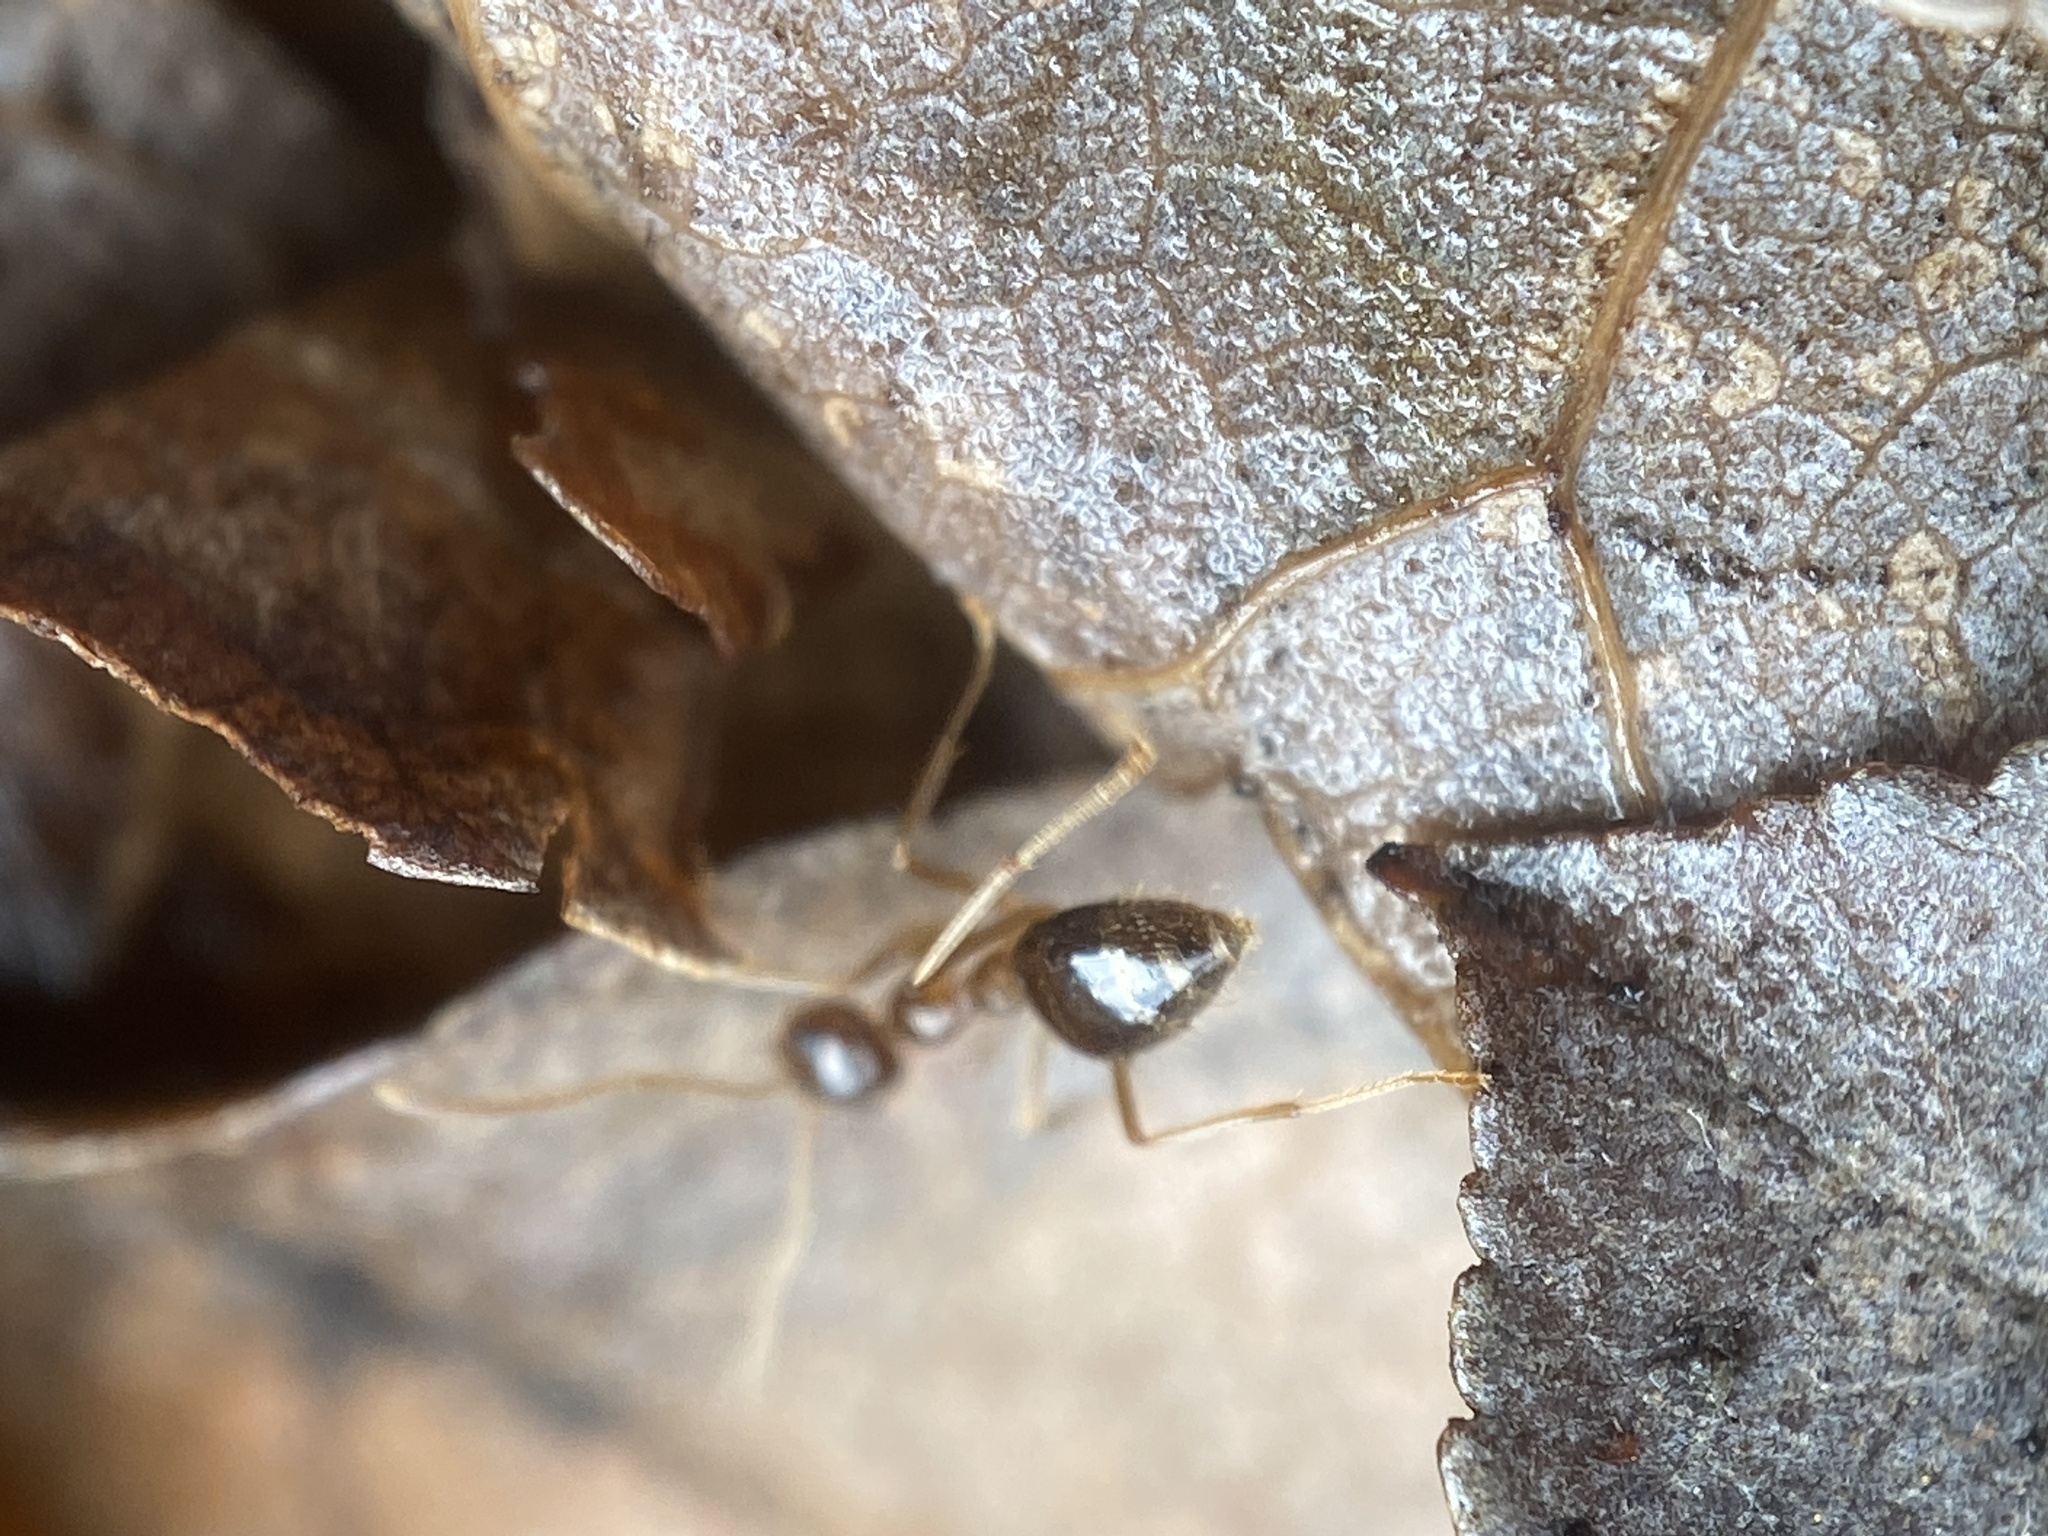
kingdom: Animalia
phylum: Arthropoda
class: Insecta
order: Hymenoptera
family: Formicidae
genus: Prenolepis
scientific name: Prenolepis imparis
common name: Small honey ant
